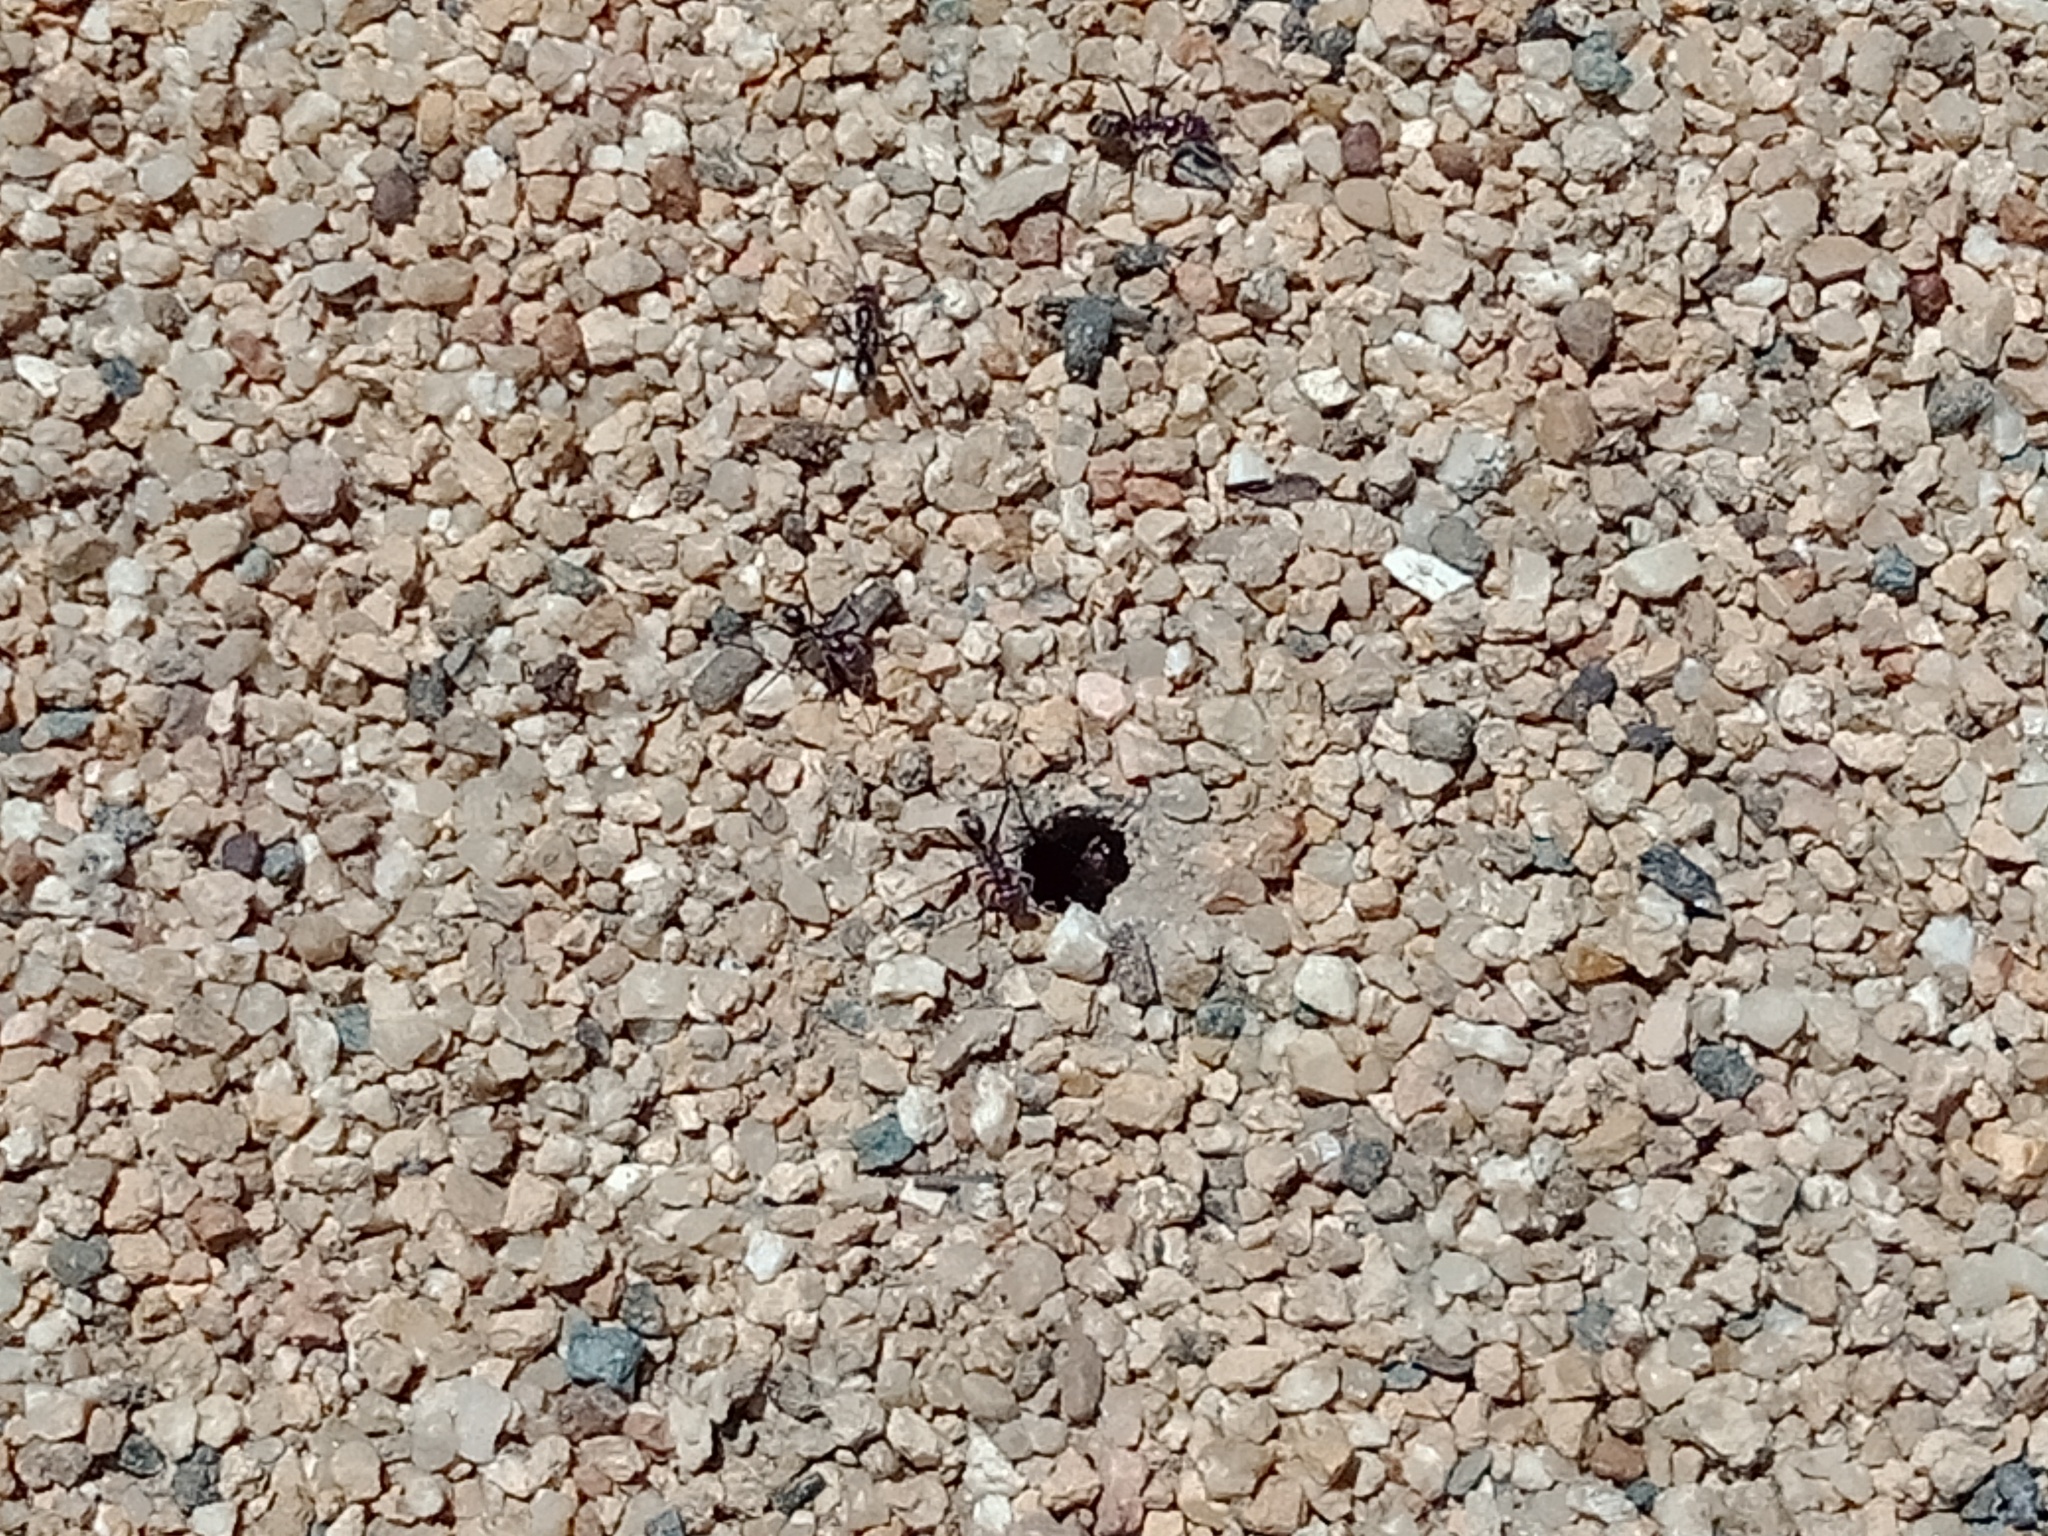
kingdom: Animalia
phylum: Arthropoda
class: Insecta
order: Hymenoptera
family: Formicidae
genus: Iridomyrmex
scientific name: Iridomyrmex purpureus
